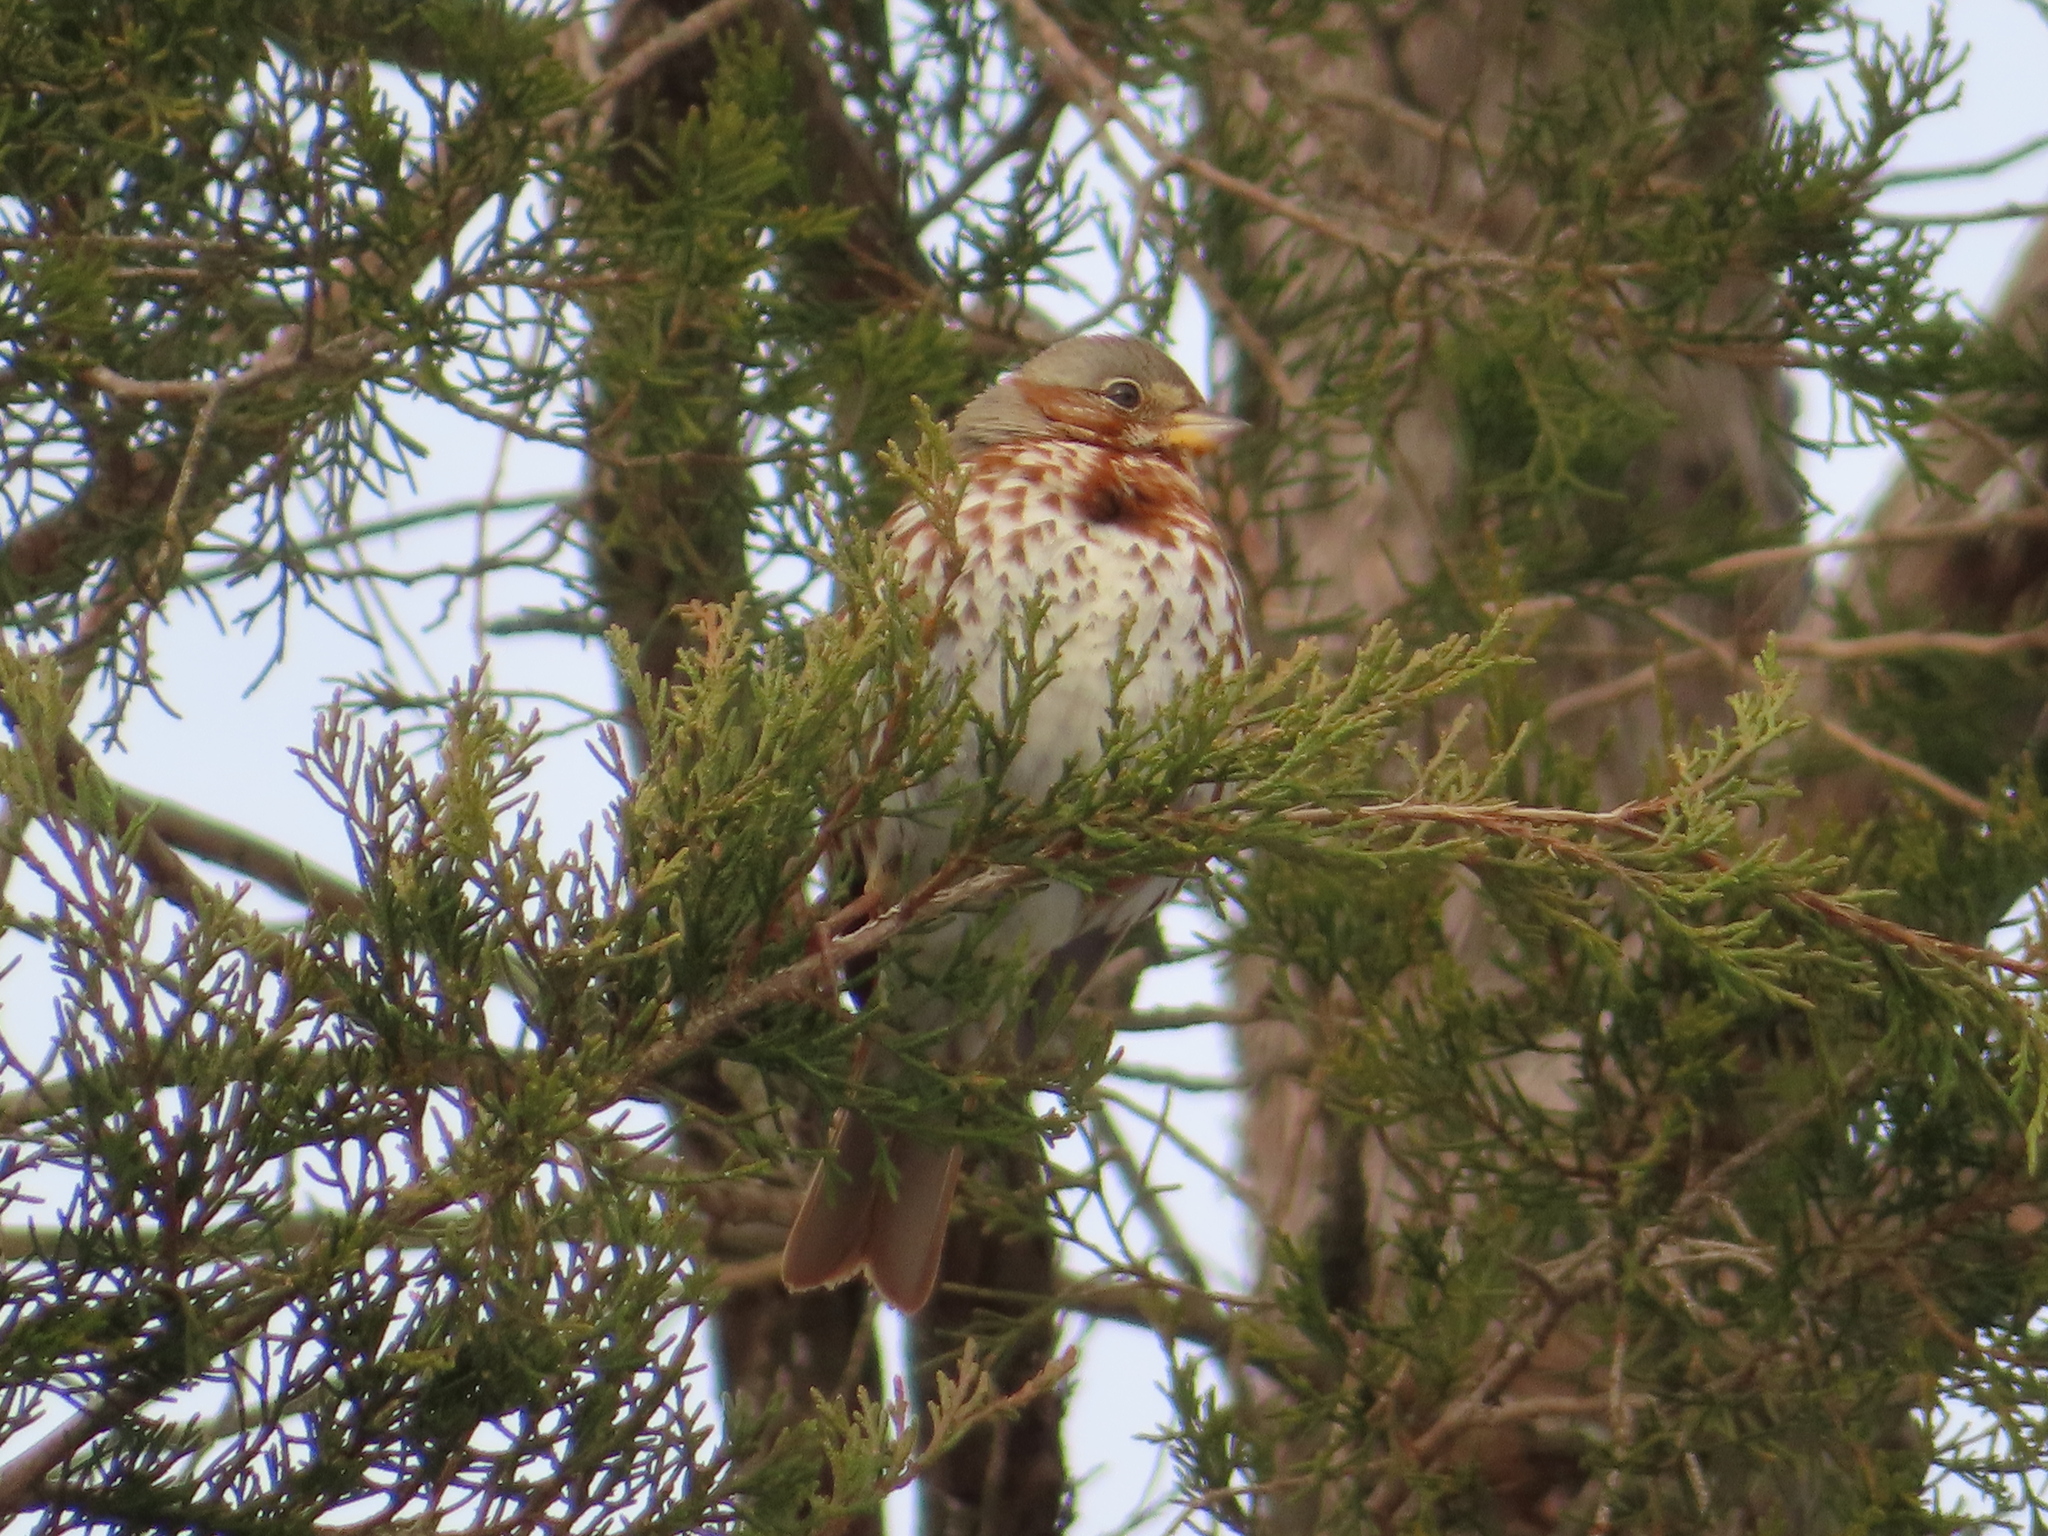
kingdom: Animalia
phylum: Chordata
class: Aves
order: Passeriformes
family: Passerellidae
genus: Passerella
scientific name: Passerella iliaca
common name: Fox sparrow
